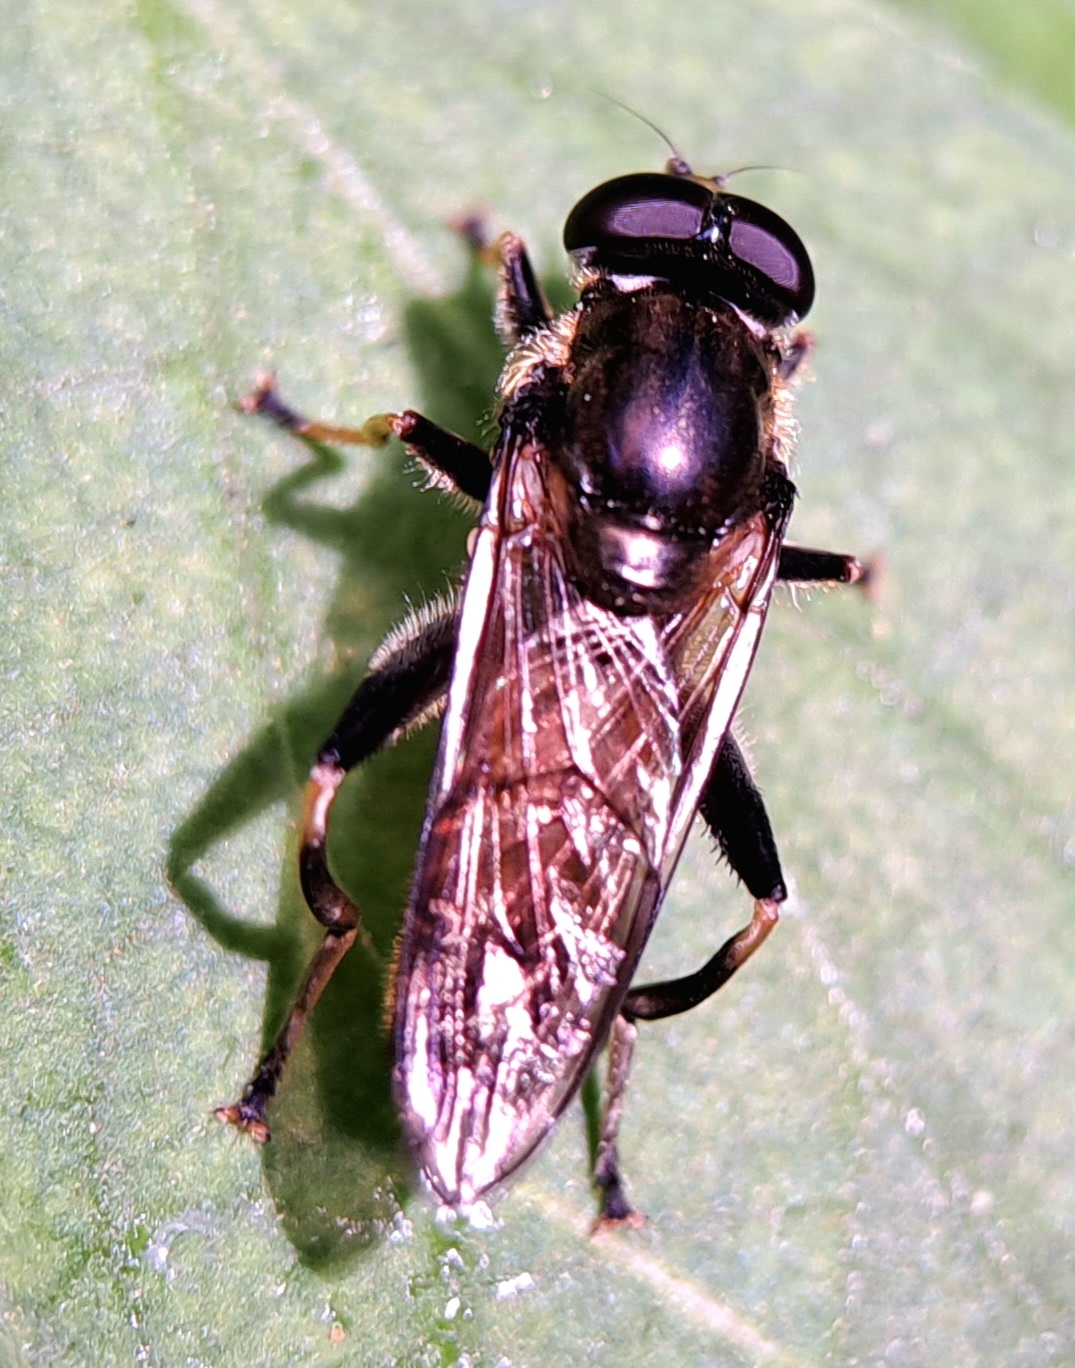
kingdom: Animalia
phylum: Arthropoda
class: Insecta
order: Diptera
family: Syrphidae
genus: Xylota
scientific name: Xylota segnis
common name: Brown-toed forest fly
